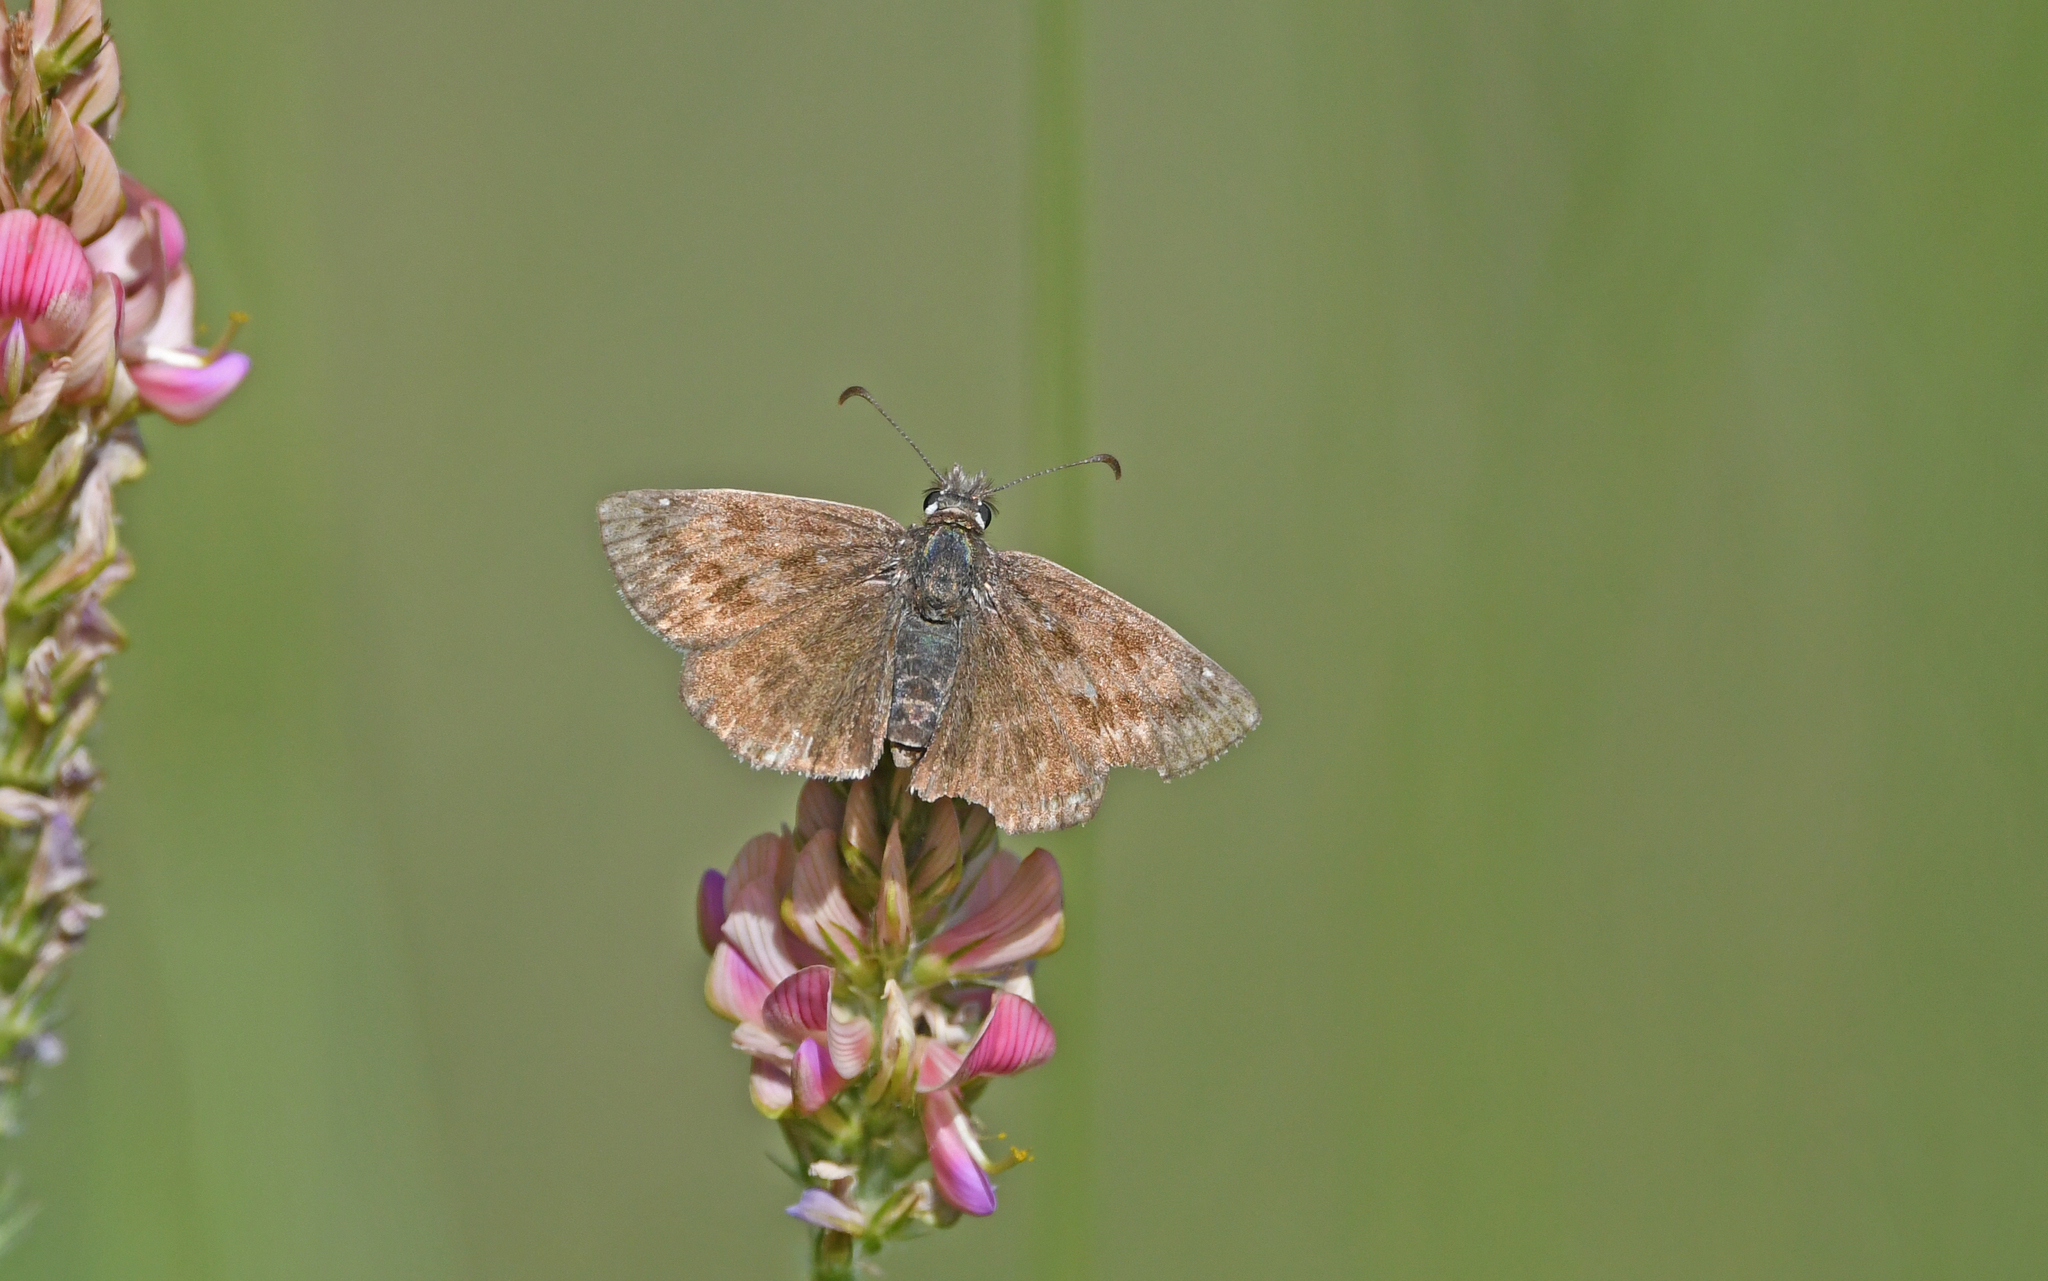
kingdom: Animalia
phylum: Arthropoda
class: Insecta
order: Lepidoptera
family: Hesperiidae
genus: Erynnis
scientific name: Erynnis tages
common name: Dingy skipper
